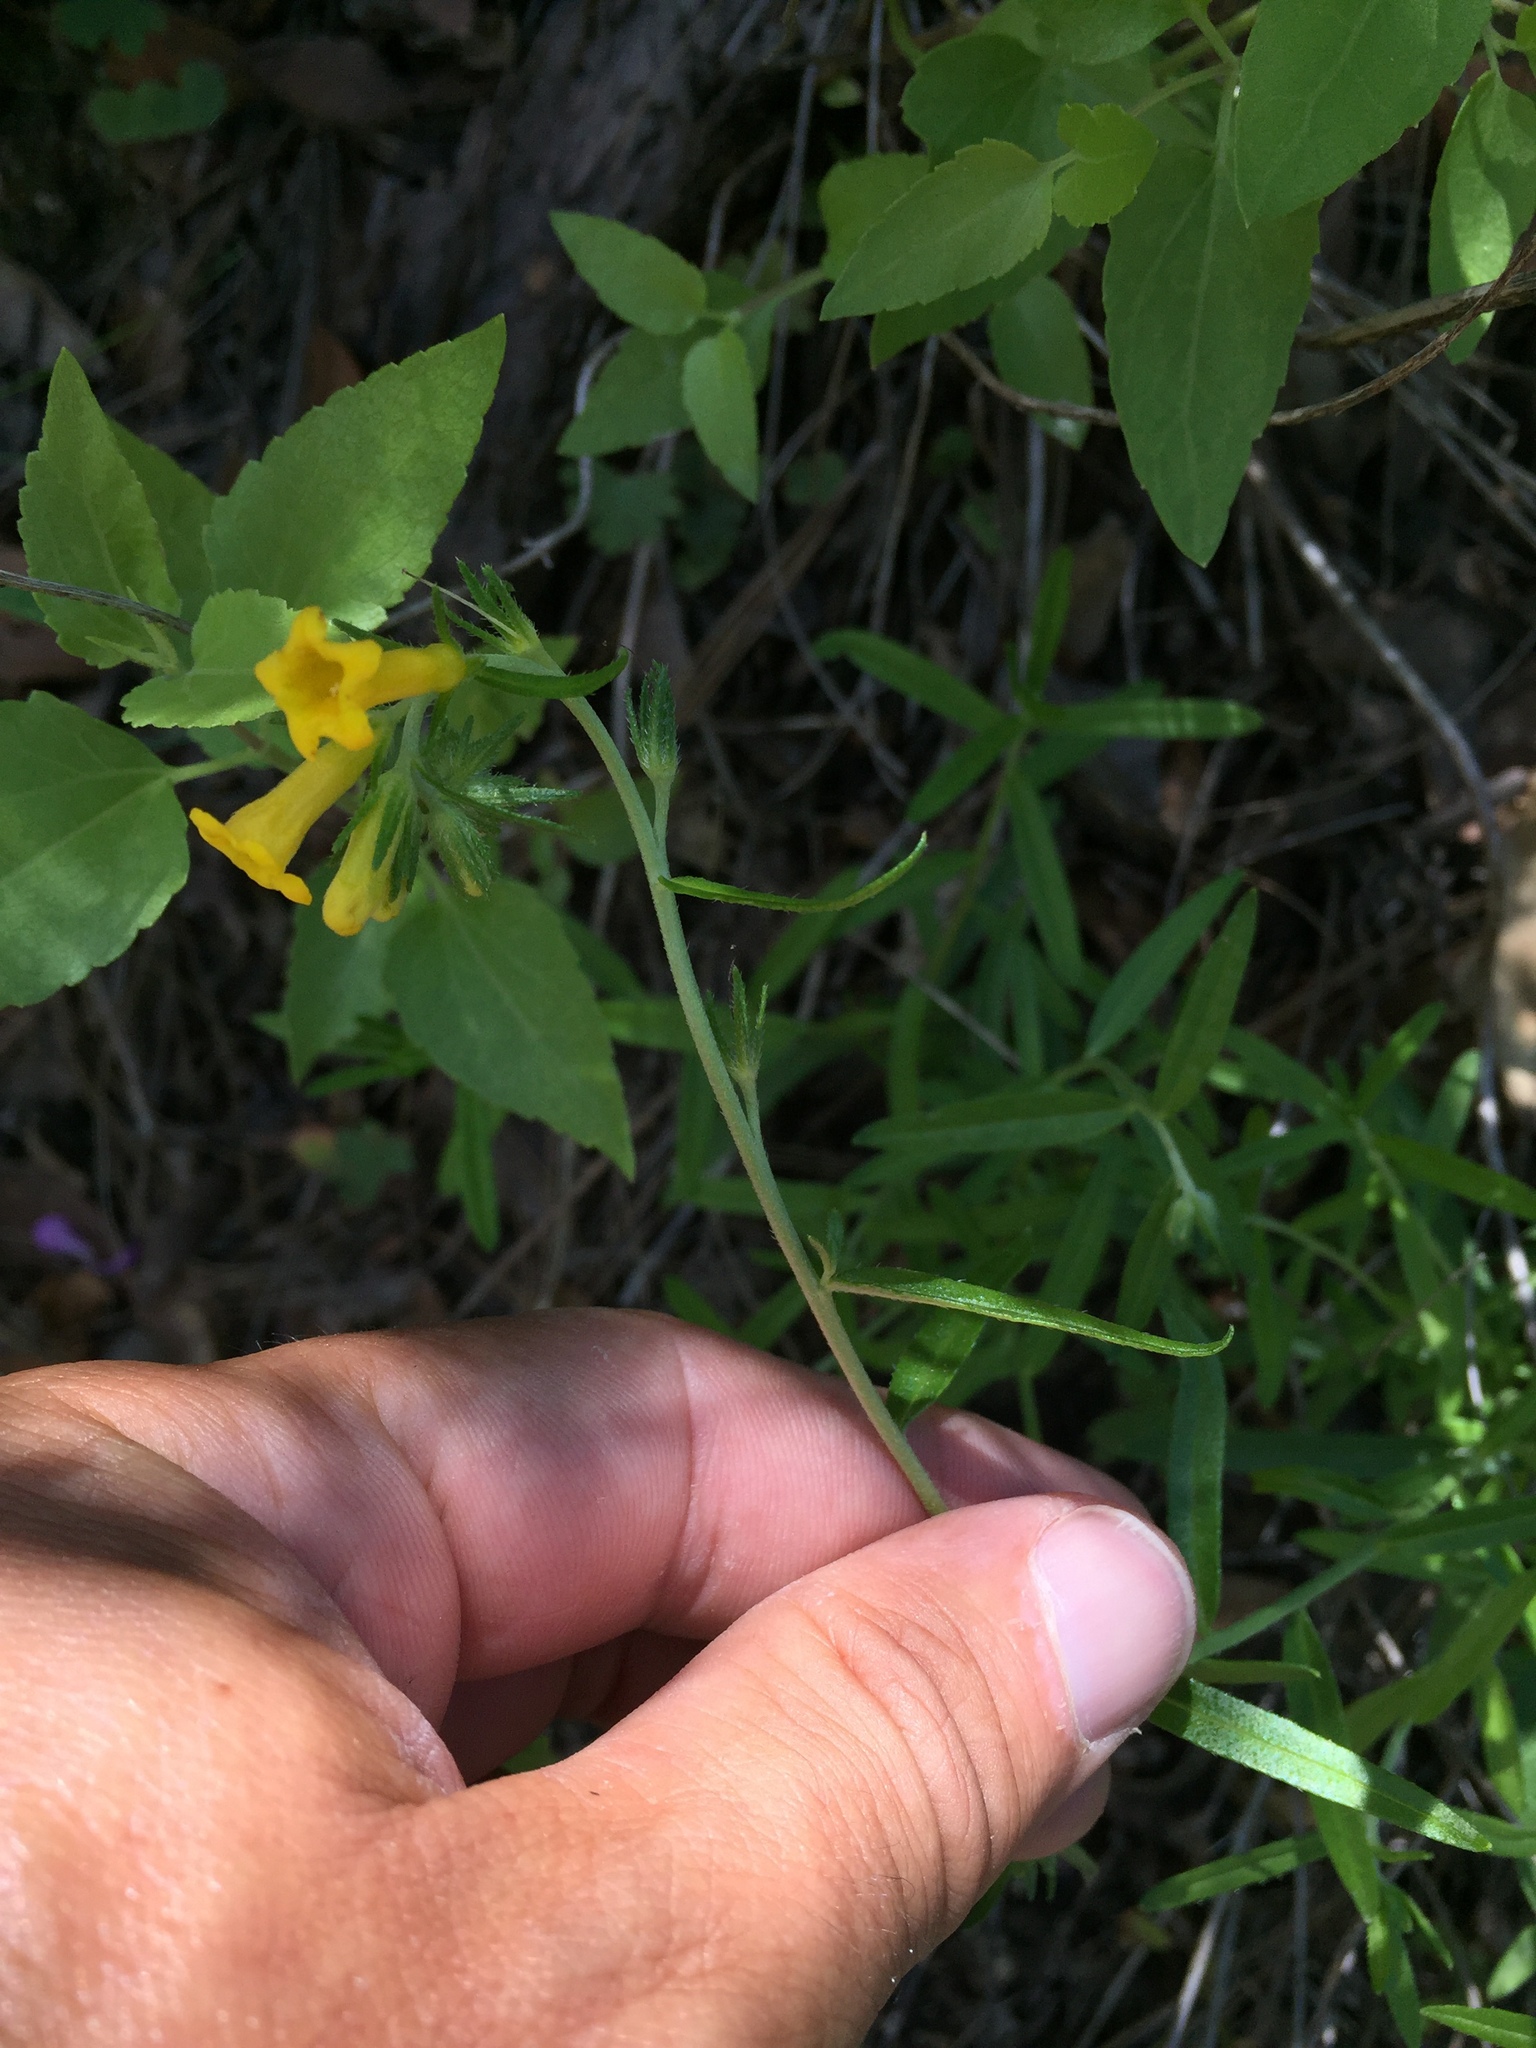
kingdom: Plantae
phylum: Tracheophyta
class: Magnoliopsida
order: Boraginales
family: Boraginaceae
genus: Lithospermum
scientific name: Lithospermum multiflorum
